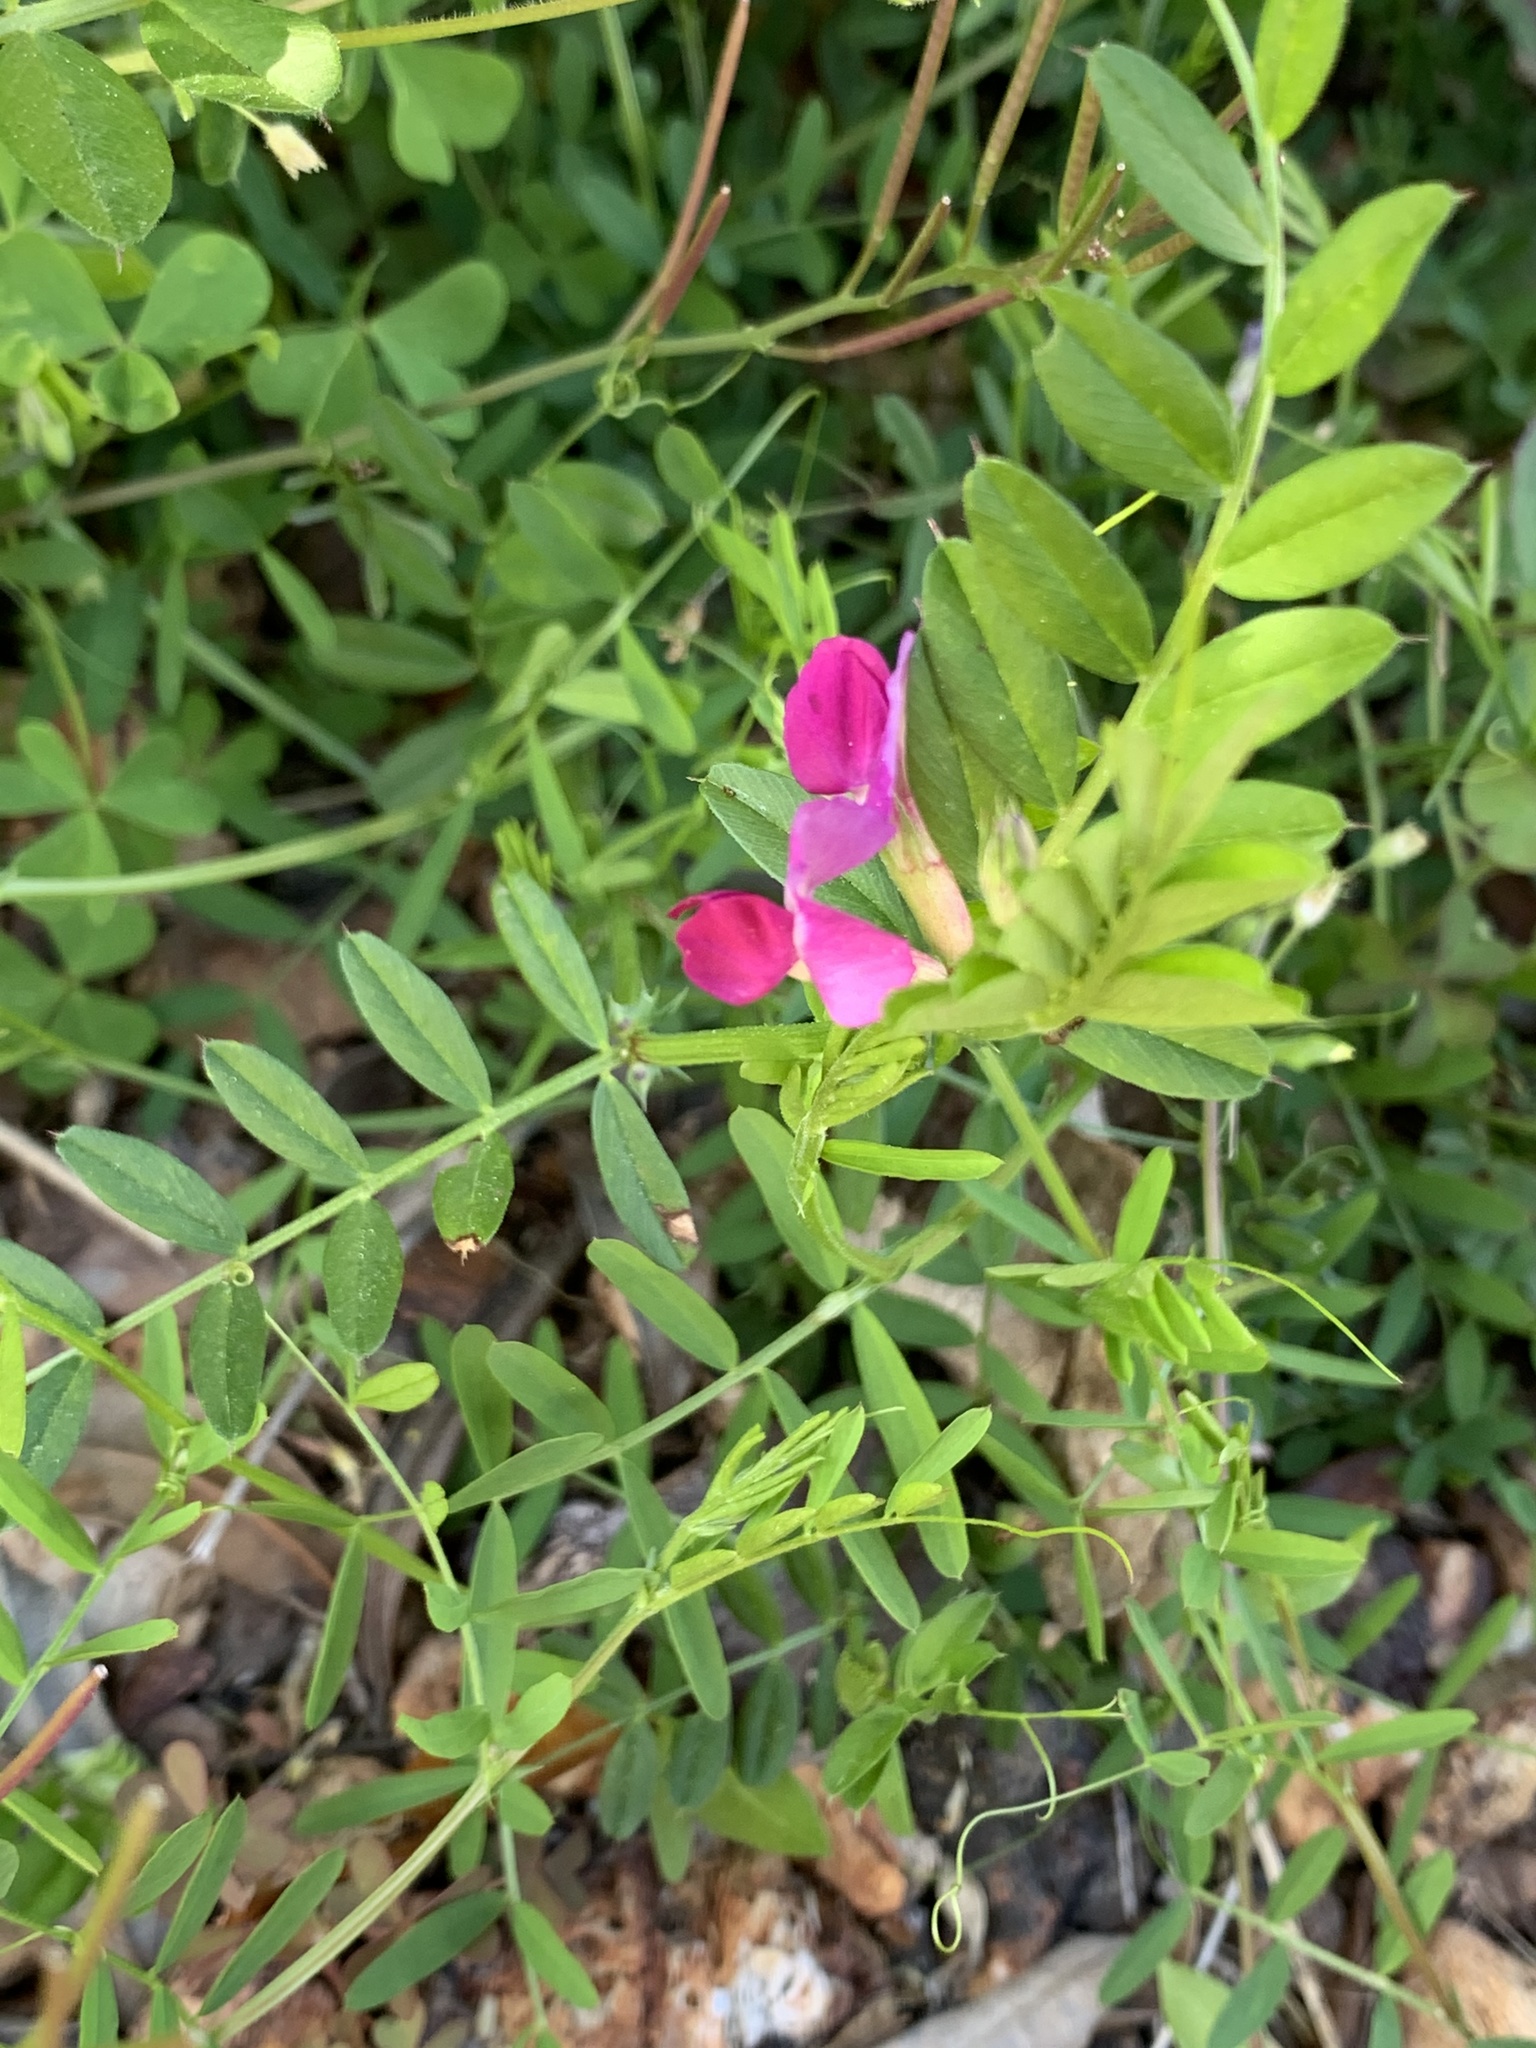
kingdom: Plantae
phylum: Tracheophyta
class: Magnoliopsida
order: Fabales
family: Fabaceae
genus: Vicia
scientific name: Vicia sativa
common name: Garden vetch
